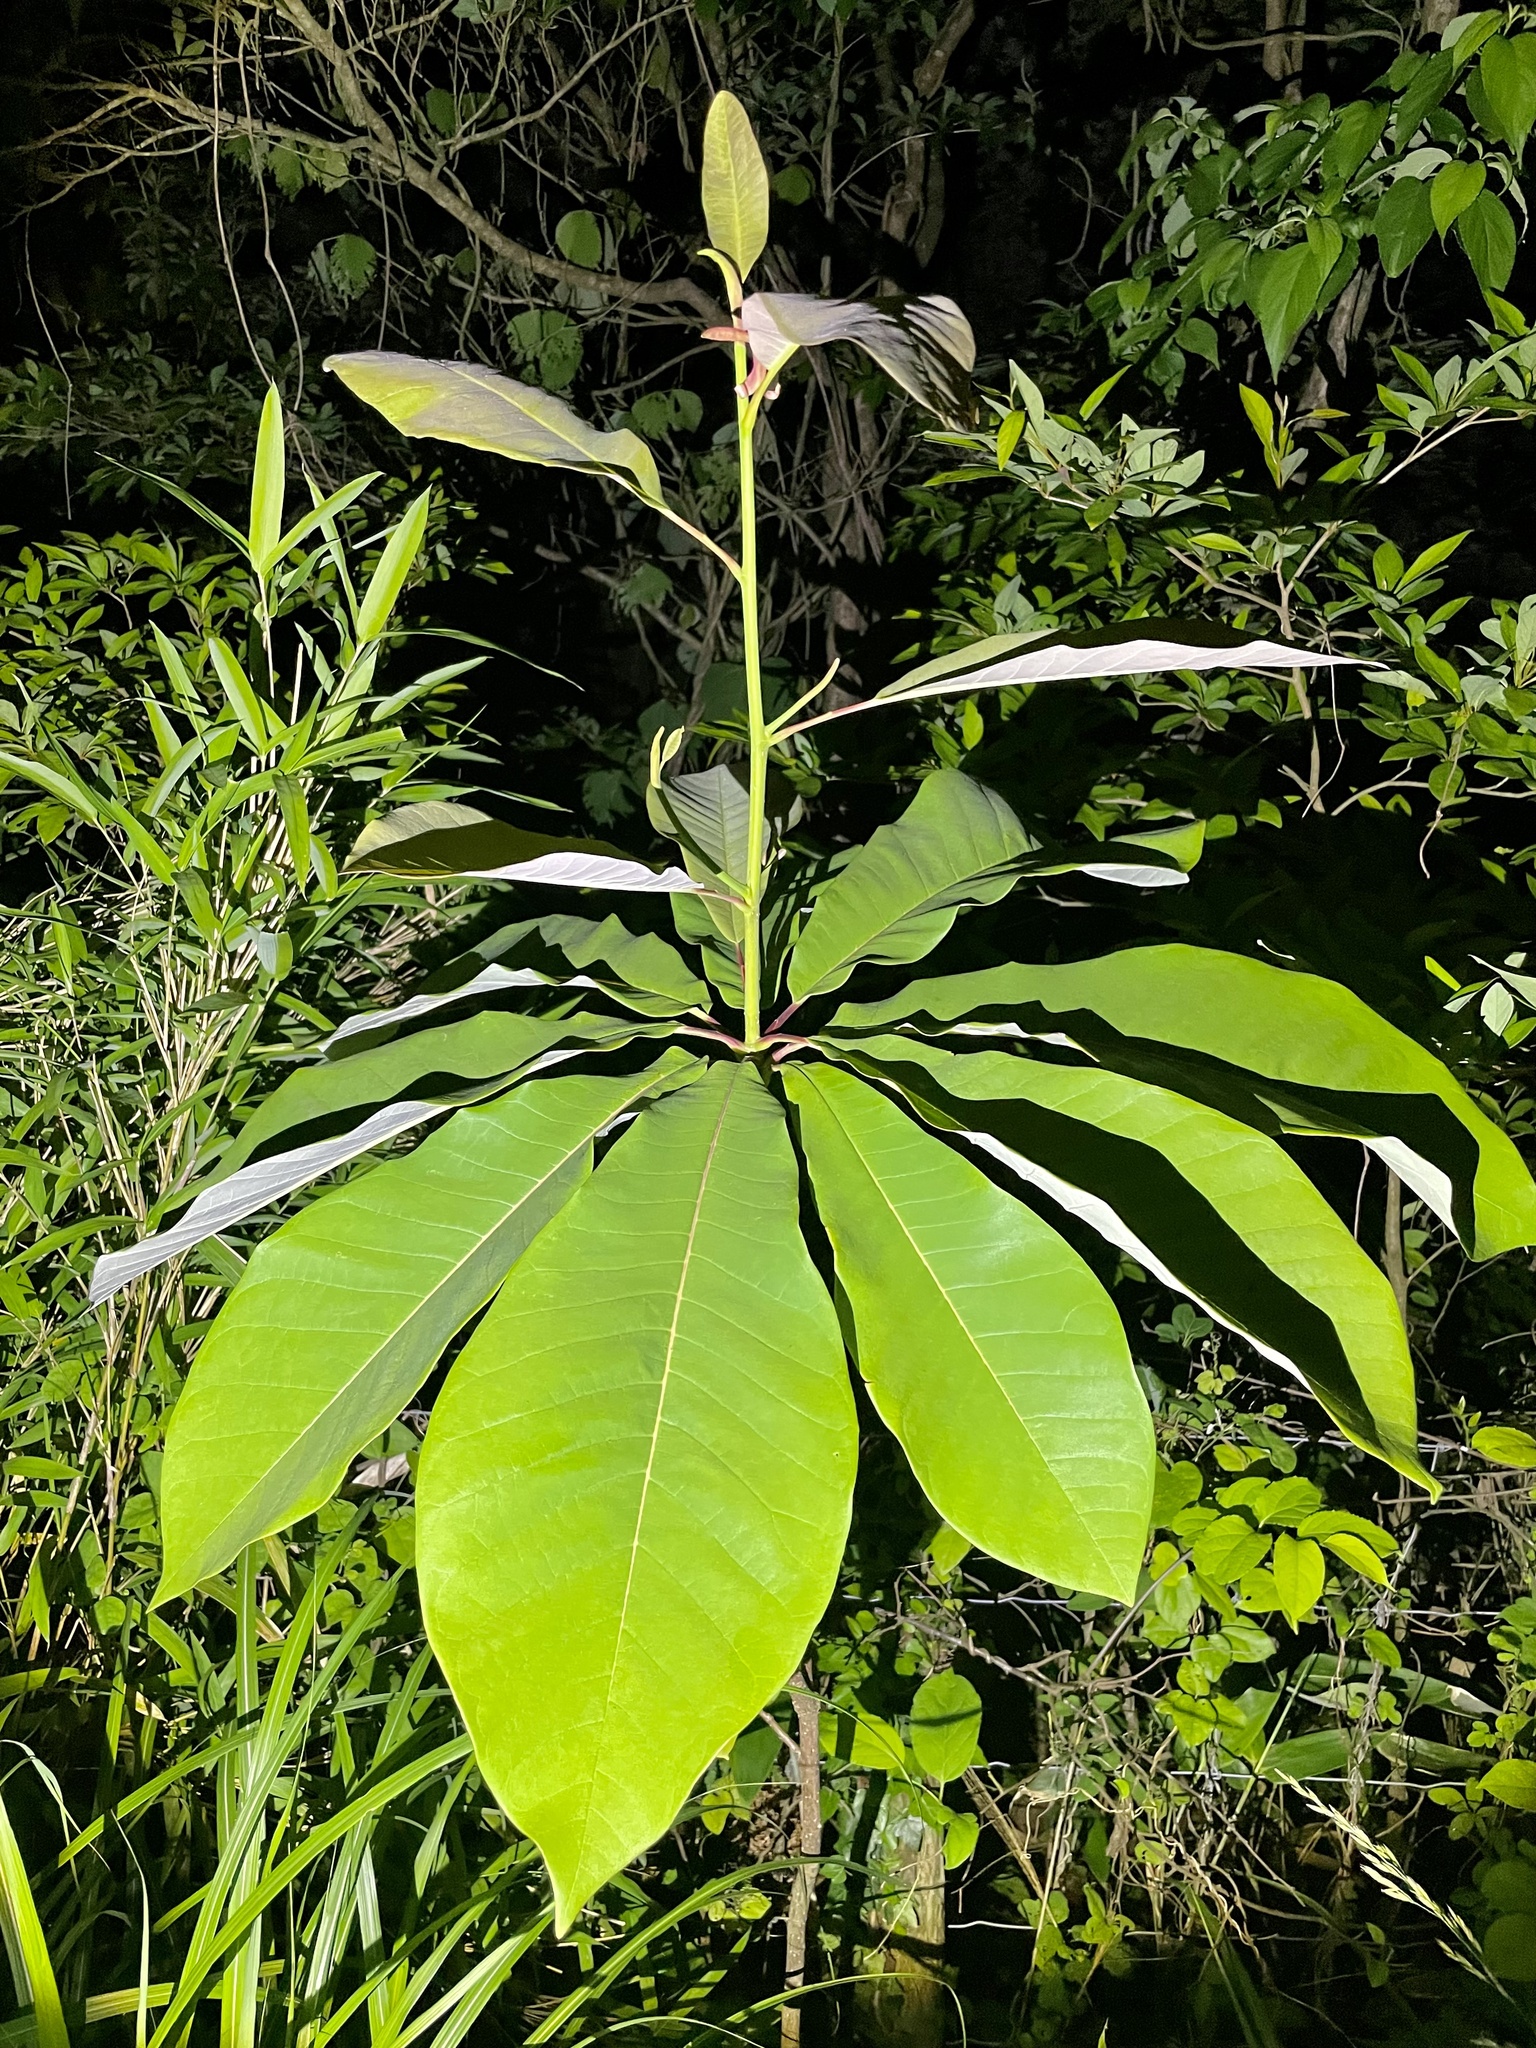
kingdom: Plantae
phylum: Tracheophyta
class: Magnoliopsida
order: Magnoliales
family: Magnoliaceae
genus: Magnolia
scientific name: Magnolia obovata
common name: Japanese whitebark magnolia
